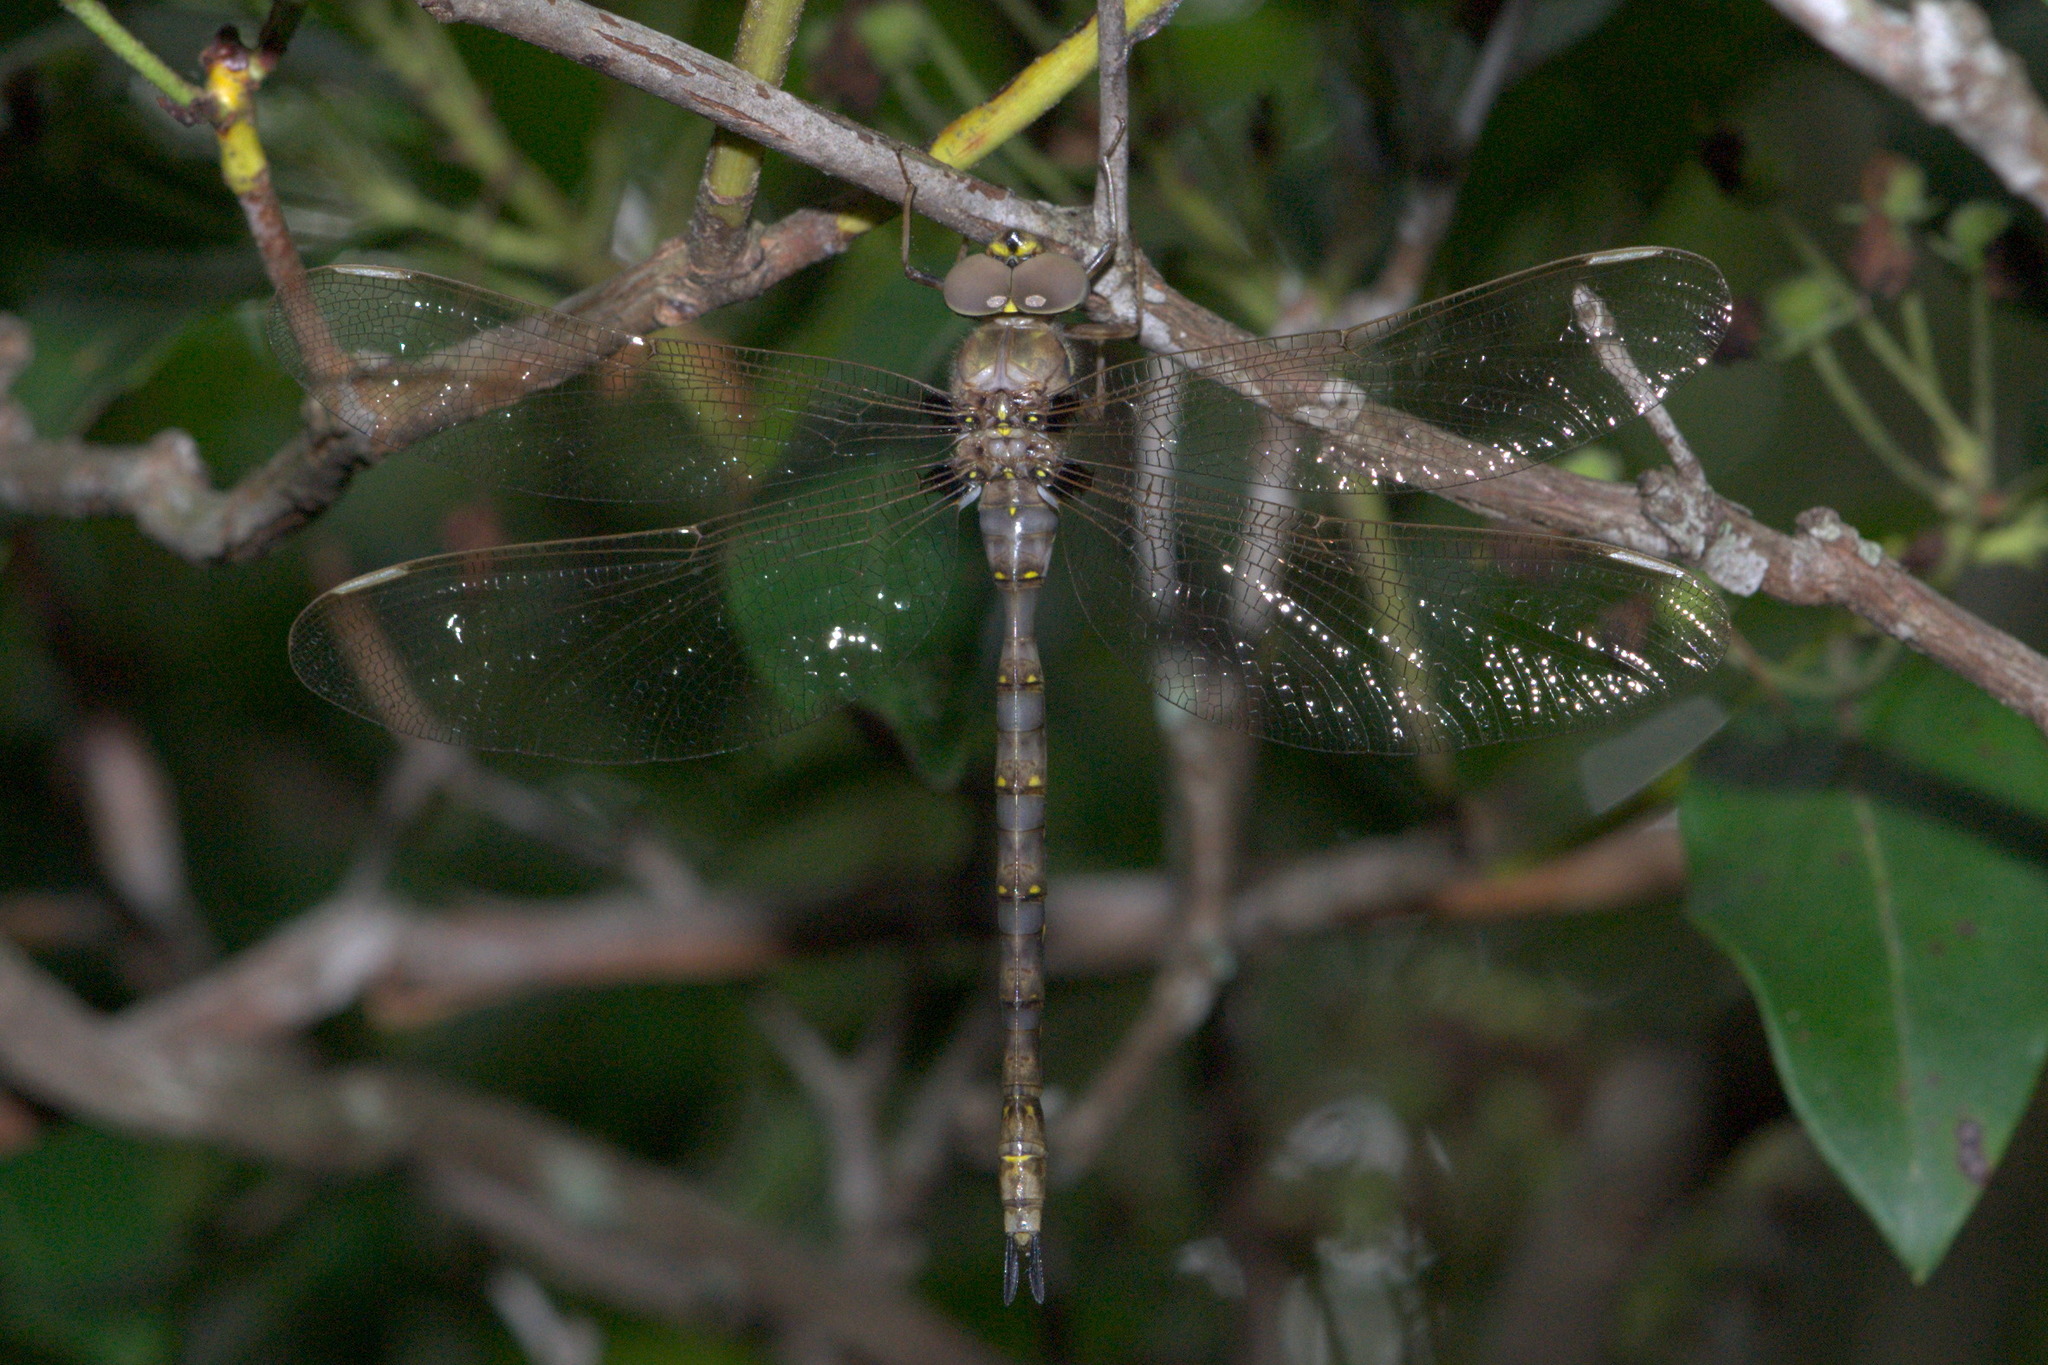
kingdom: Animalia
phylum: Arthropoda
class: Insecta
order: Odonata
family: Aeshnidae
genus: Boyeria
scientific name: Boyeria vinosa
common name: Fawn darner
